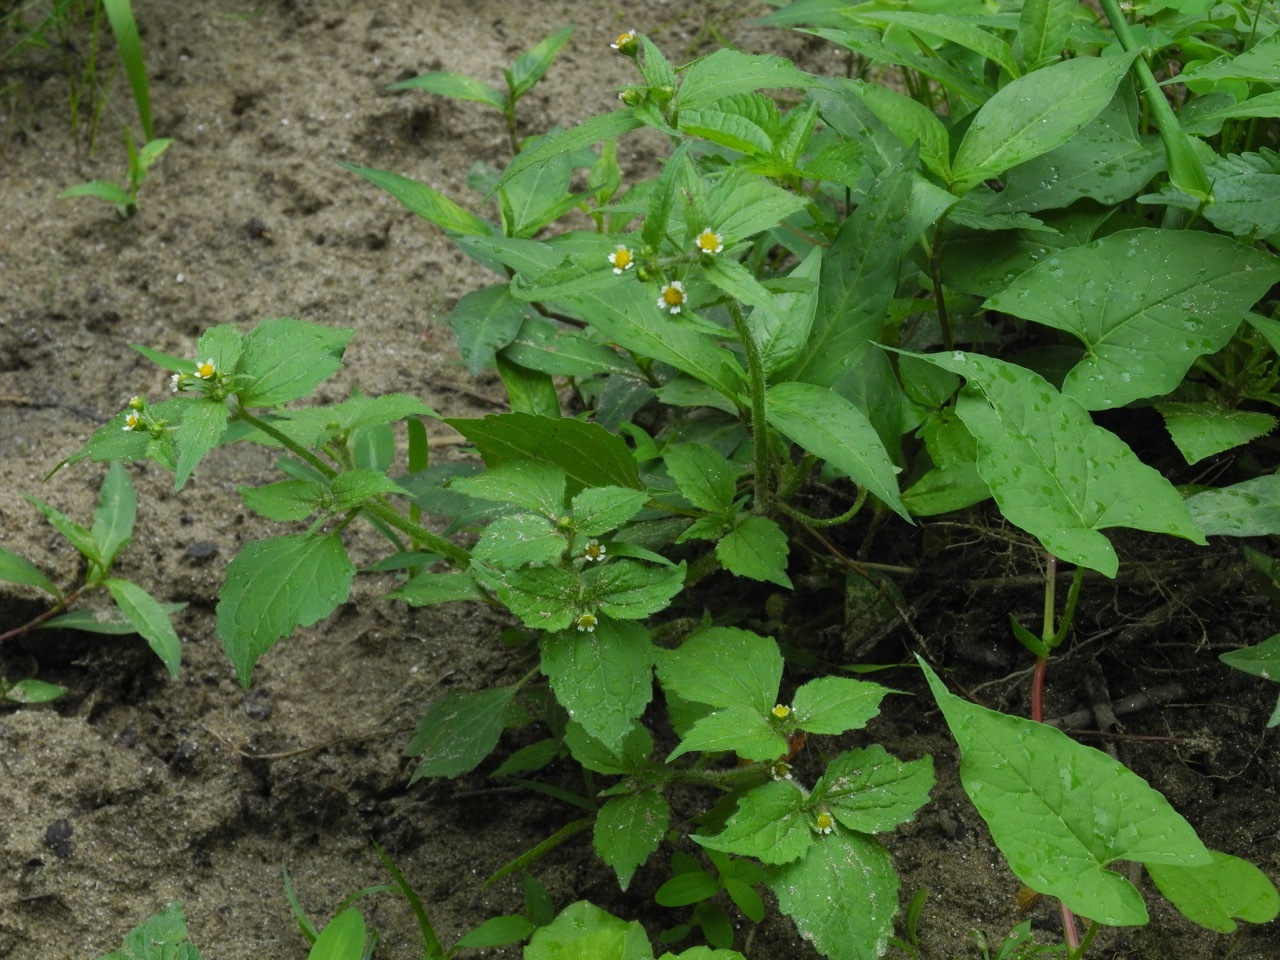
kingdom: Plantae
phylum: Tracheophyta
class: Magnoliopsida
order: Asterales
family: Asteraceae
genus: Galinsoga
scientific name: Galinsoga quadriradiata
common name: Shaggy soldier
